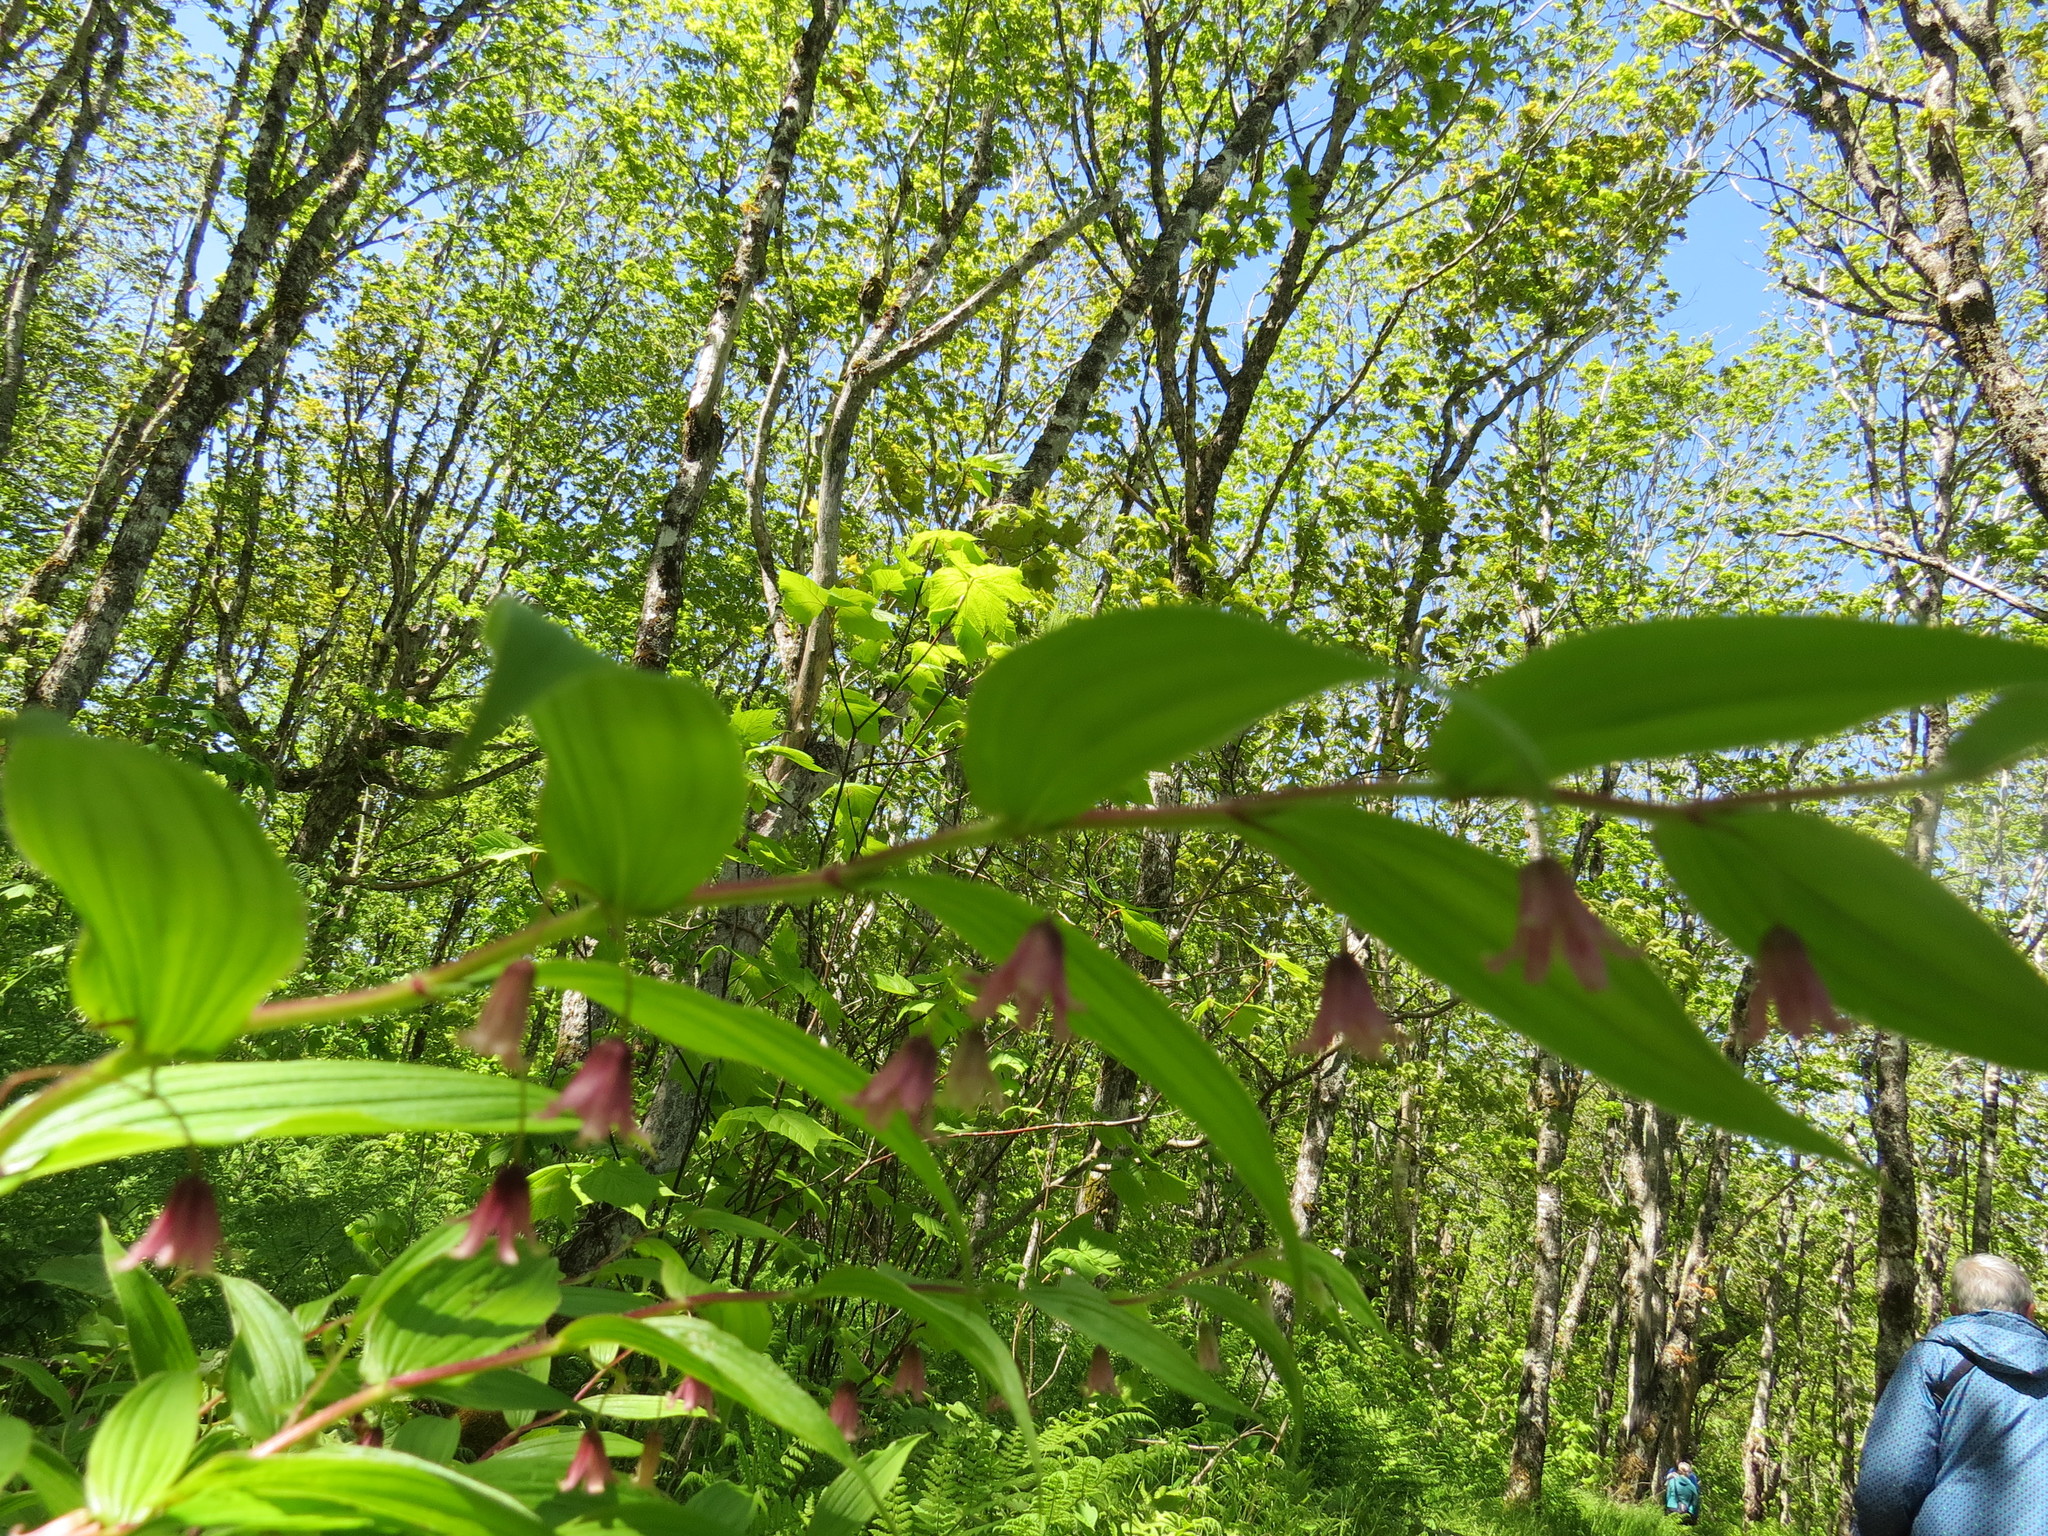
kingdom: Plantae
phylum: Tracheophyta
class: Liliopsida
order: Liliales
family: Liliaceae
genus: Streptopus
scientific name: Streptopus lanceolatus
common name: Rose mandarin
